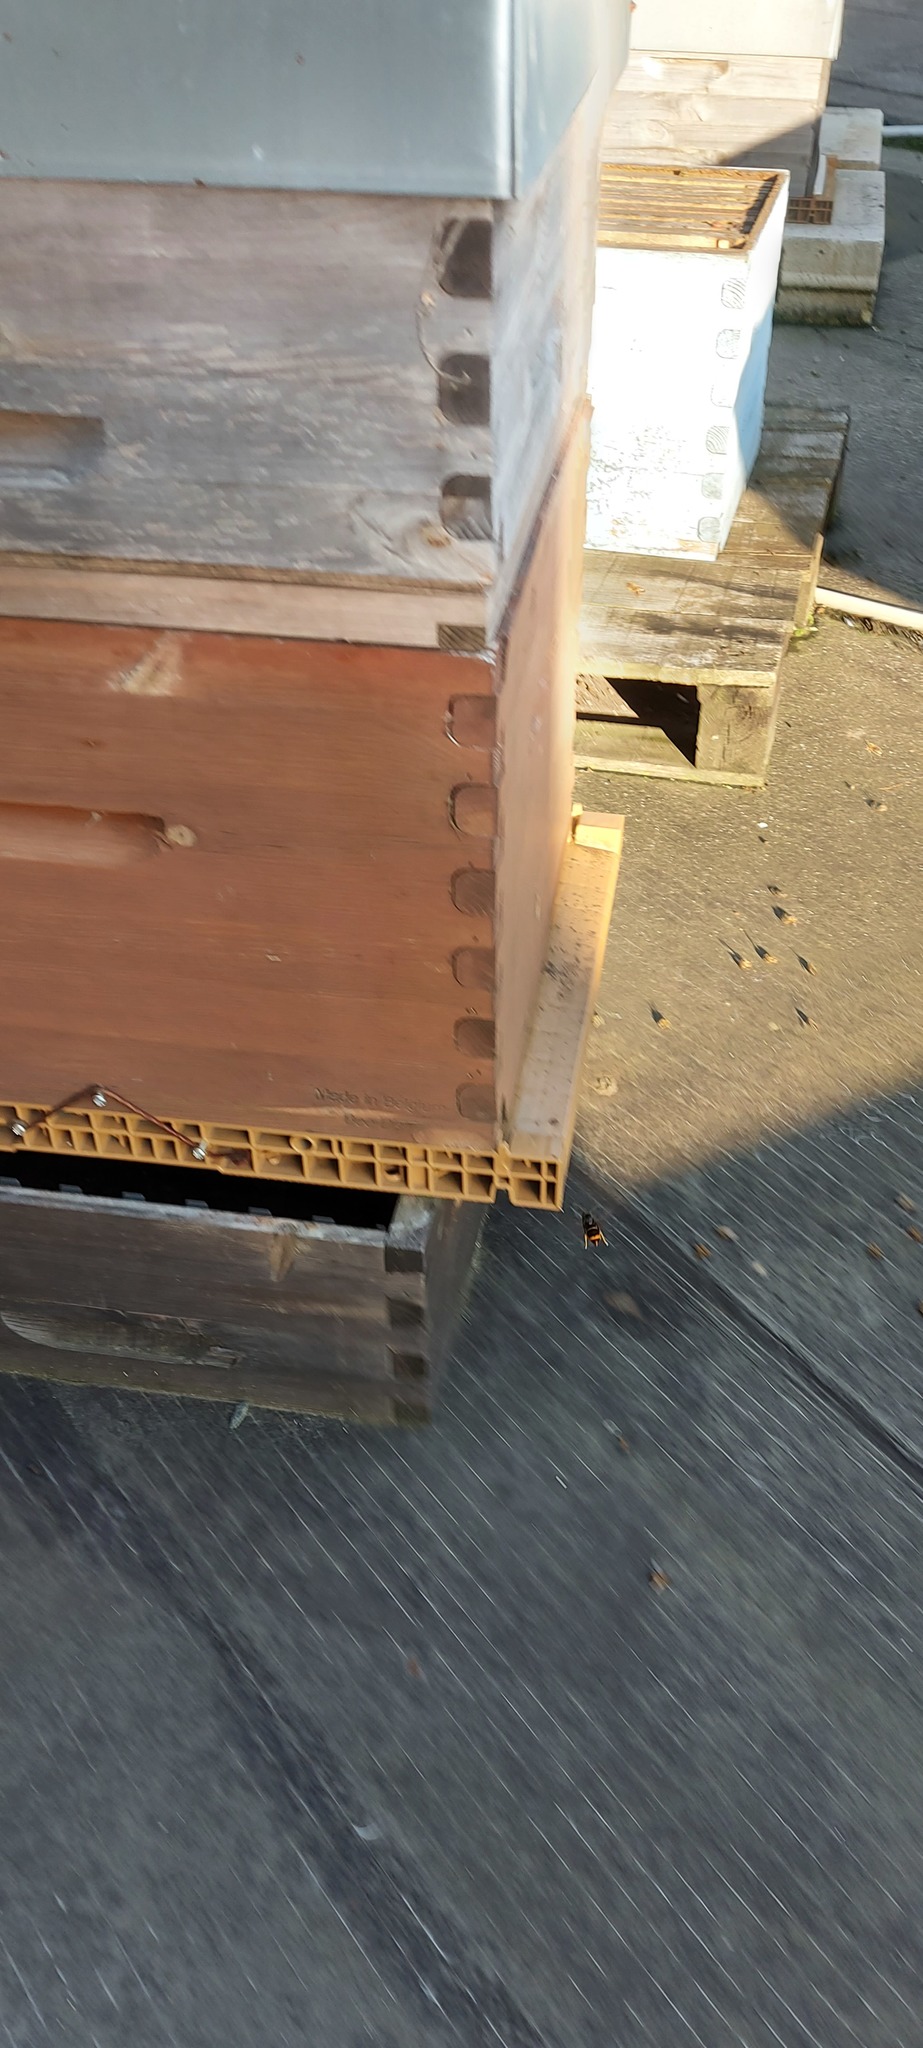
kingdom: Animalia
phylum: Arthropoda
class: Insecta
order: Hymenoptera
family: Vespidae
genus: Vespa
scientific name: Vespa velutina
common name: Asian hornet
